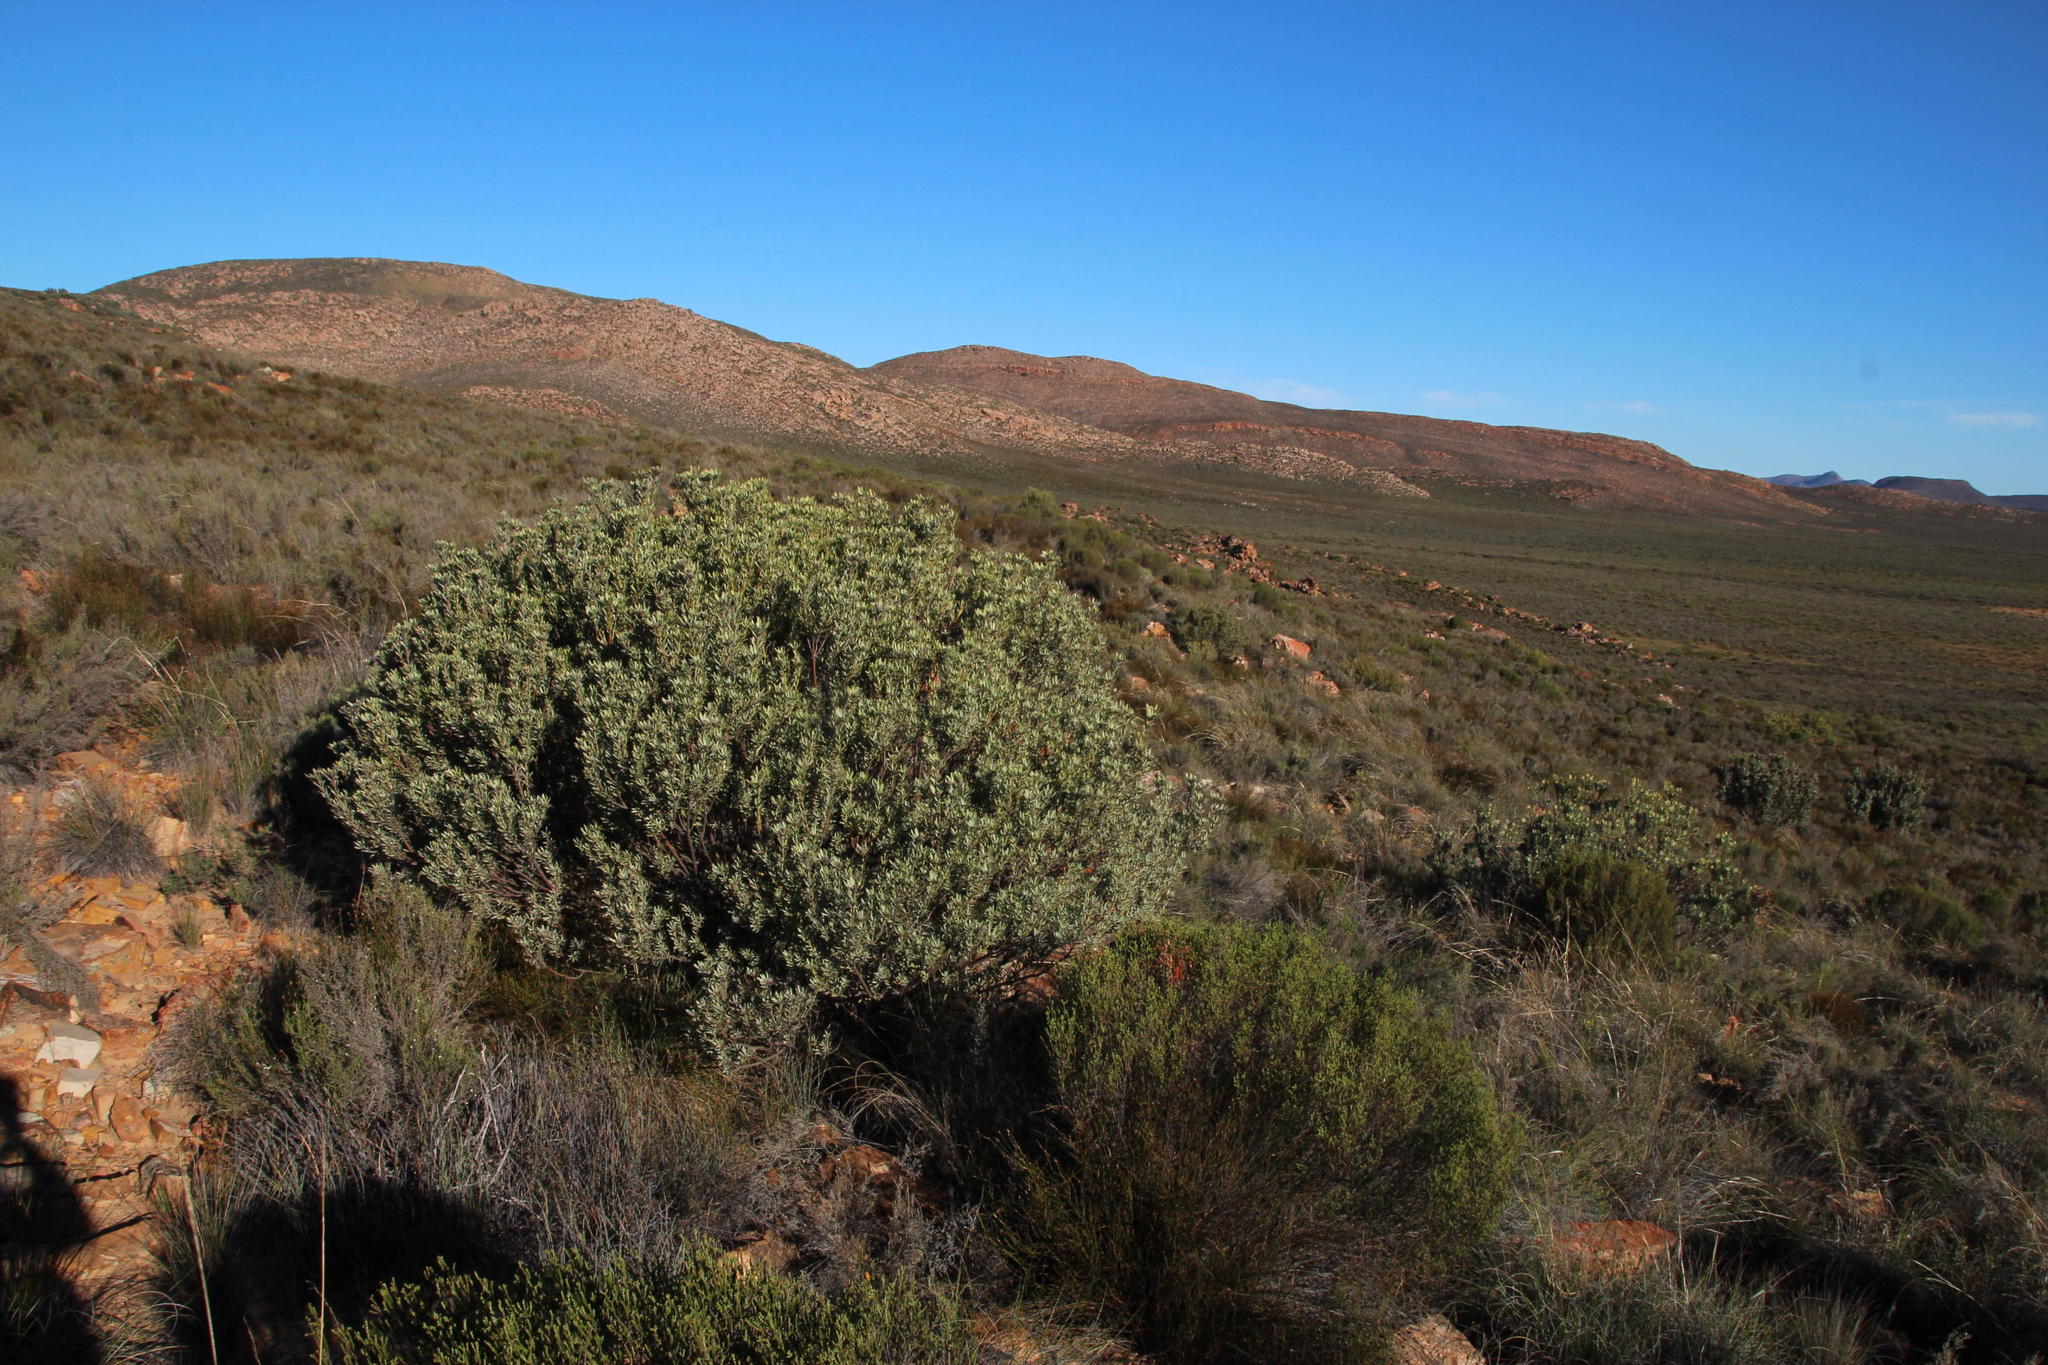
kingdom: Plantae
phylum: Tracheophyta
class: Magnoliopsida
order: Proteales
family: Proteaceae
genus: Leucadendron
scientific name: Leucadendron pubescens
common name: Grey conebush
